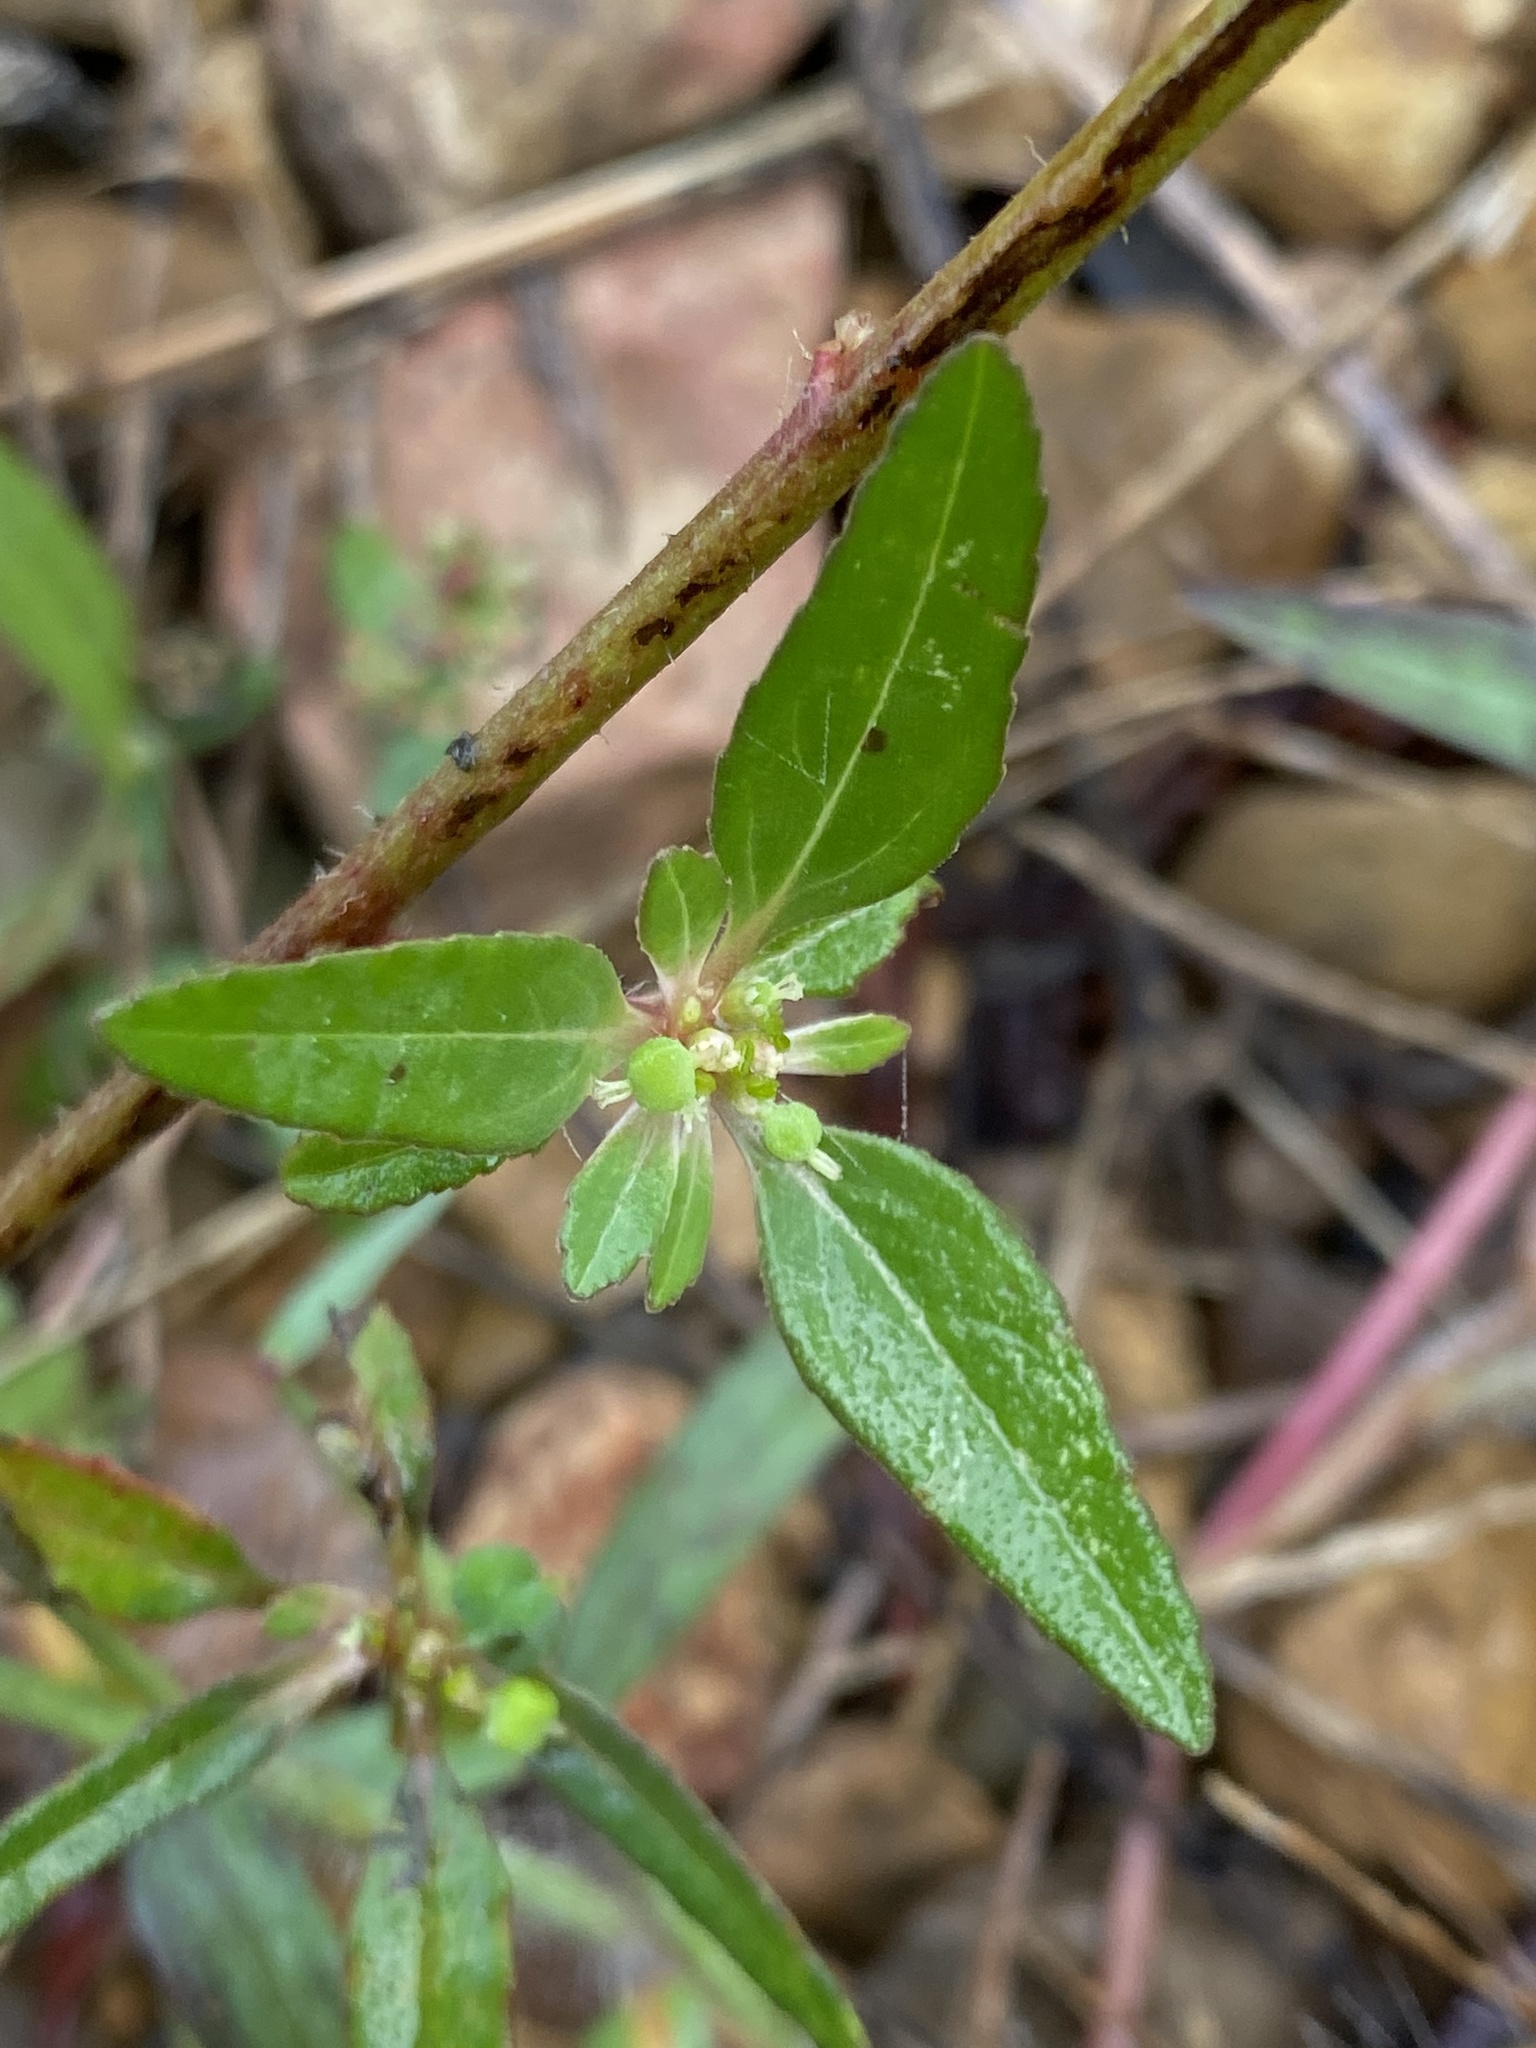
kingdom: Plantae
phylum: Tracheophyta
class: Magnoliopsida
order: Malpighiales
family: Euphorbiaceae
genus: Euphorbia
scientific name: Euphorbia dentata
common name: Dentate spurge
